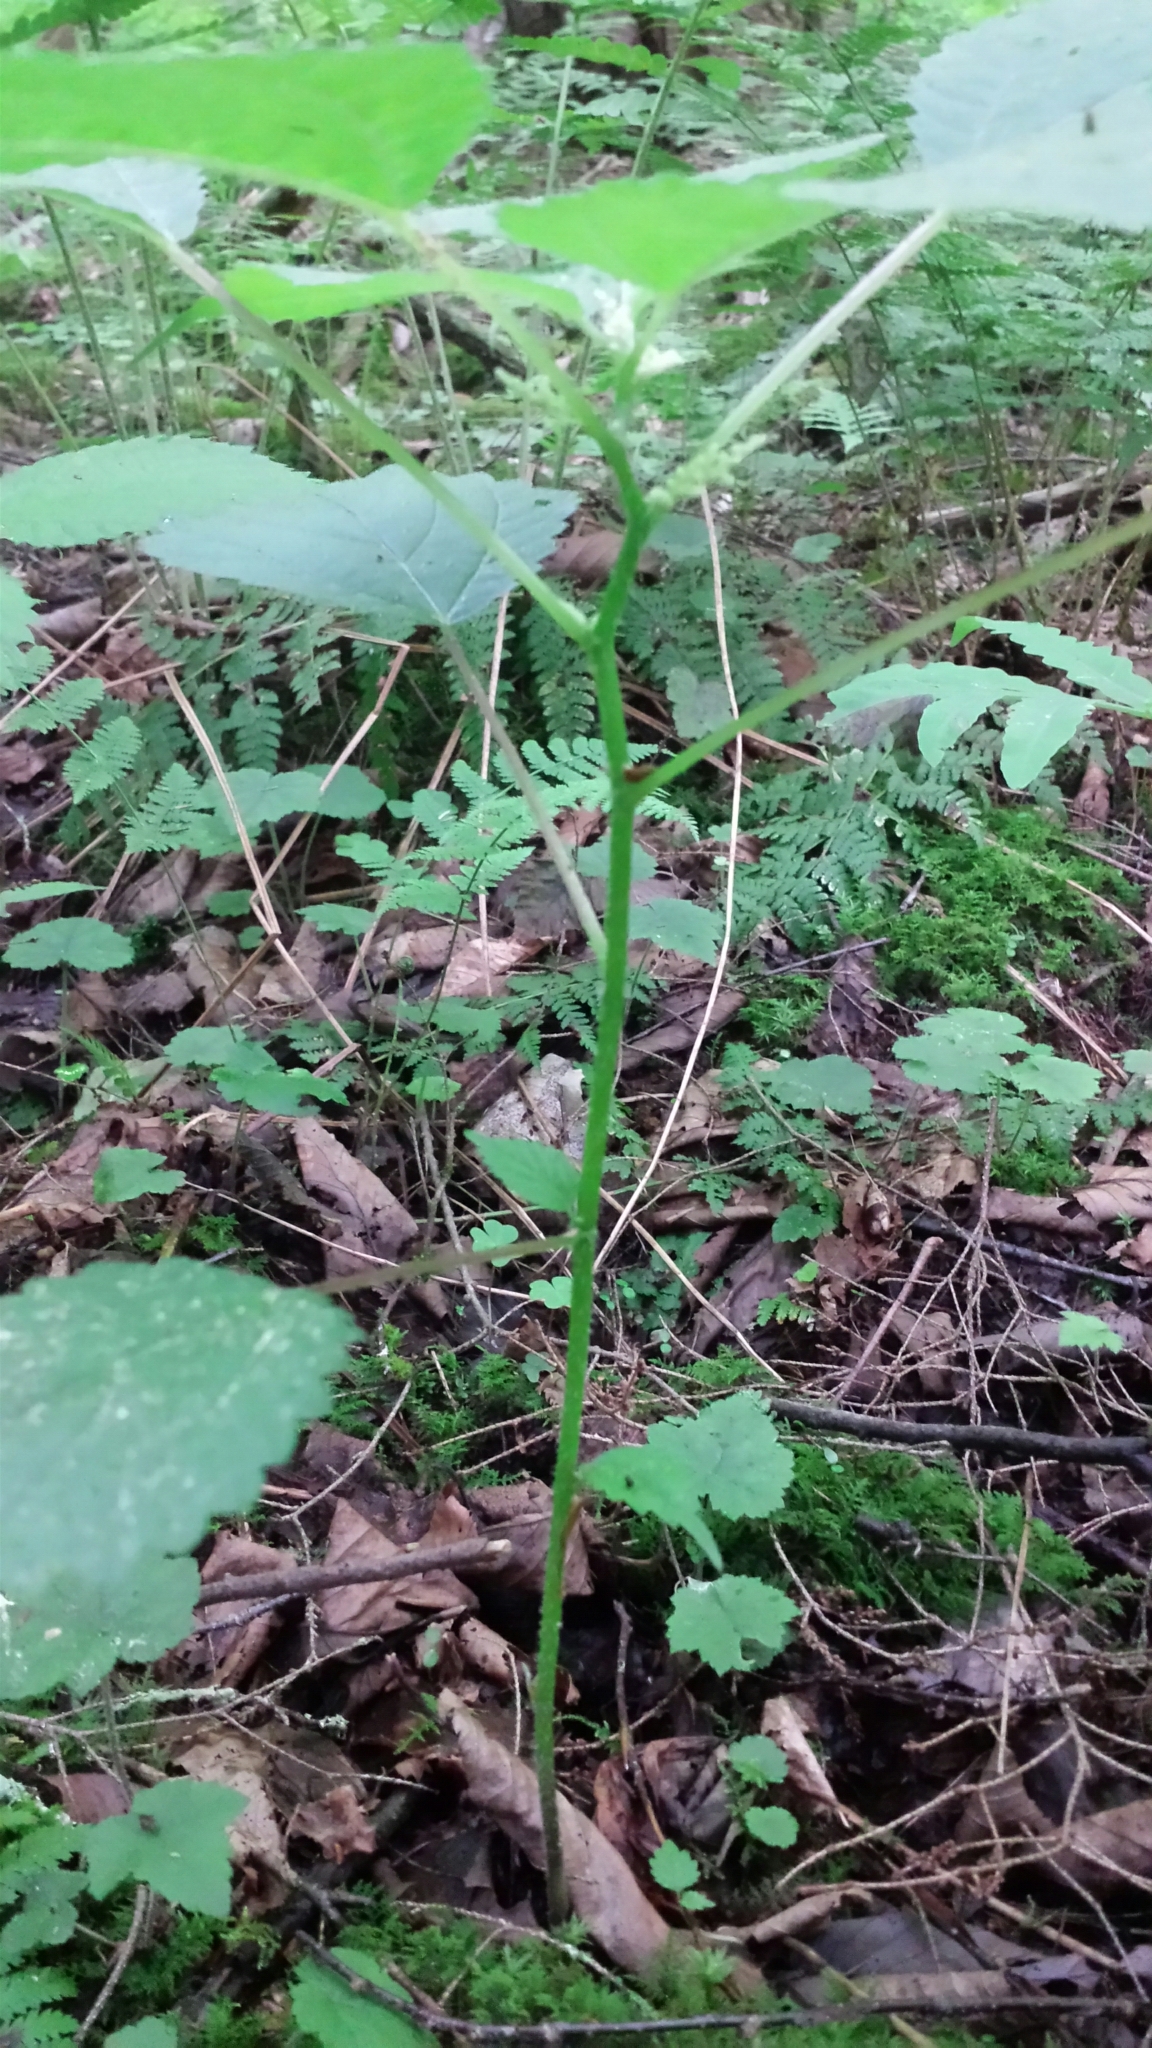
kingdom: Plantae
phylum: Tracheophyta
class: Magnoliopsida
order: Rosales
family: Urticaceae
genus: Laportea
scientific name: Laportea canadensis
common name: Canada nettle
